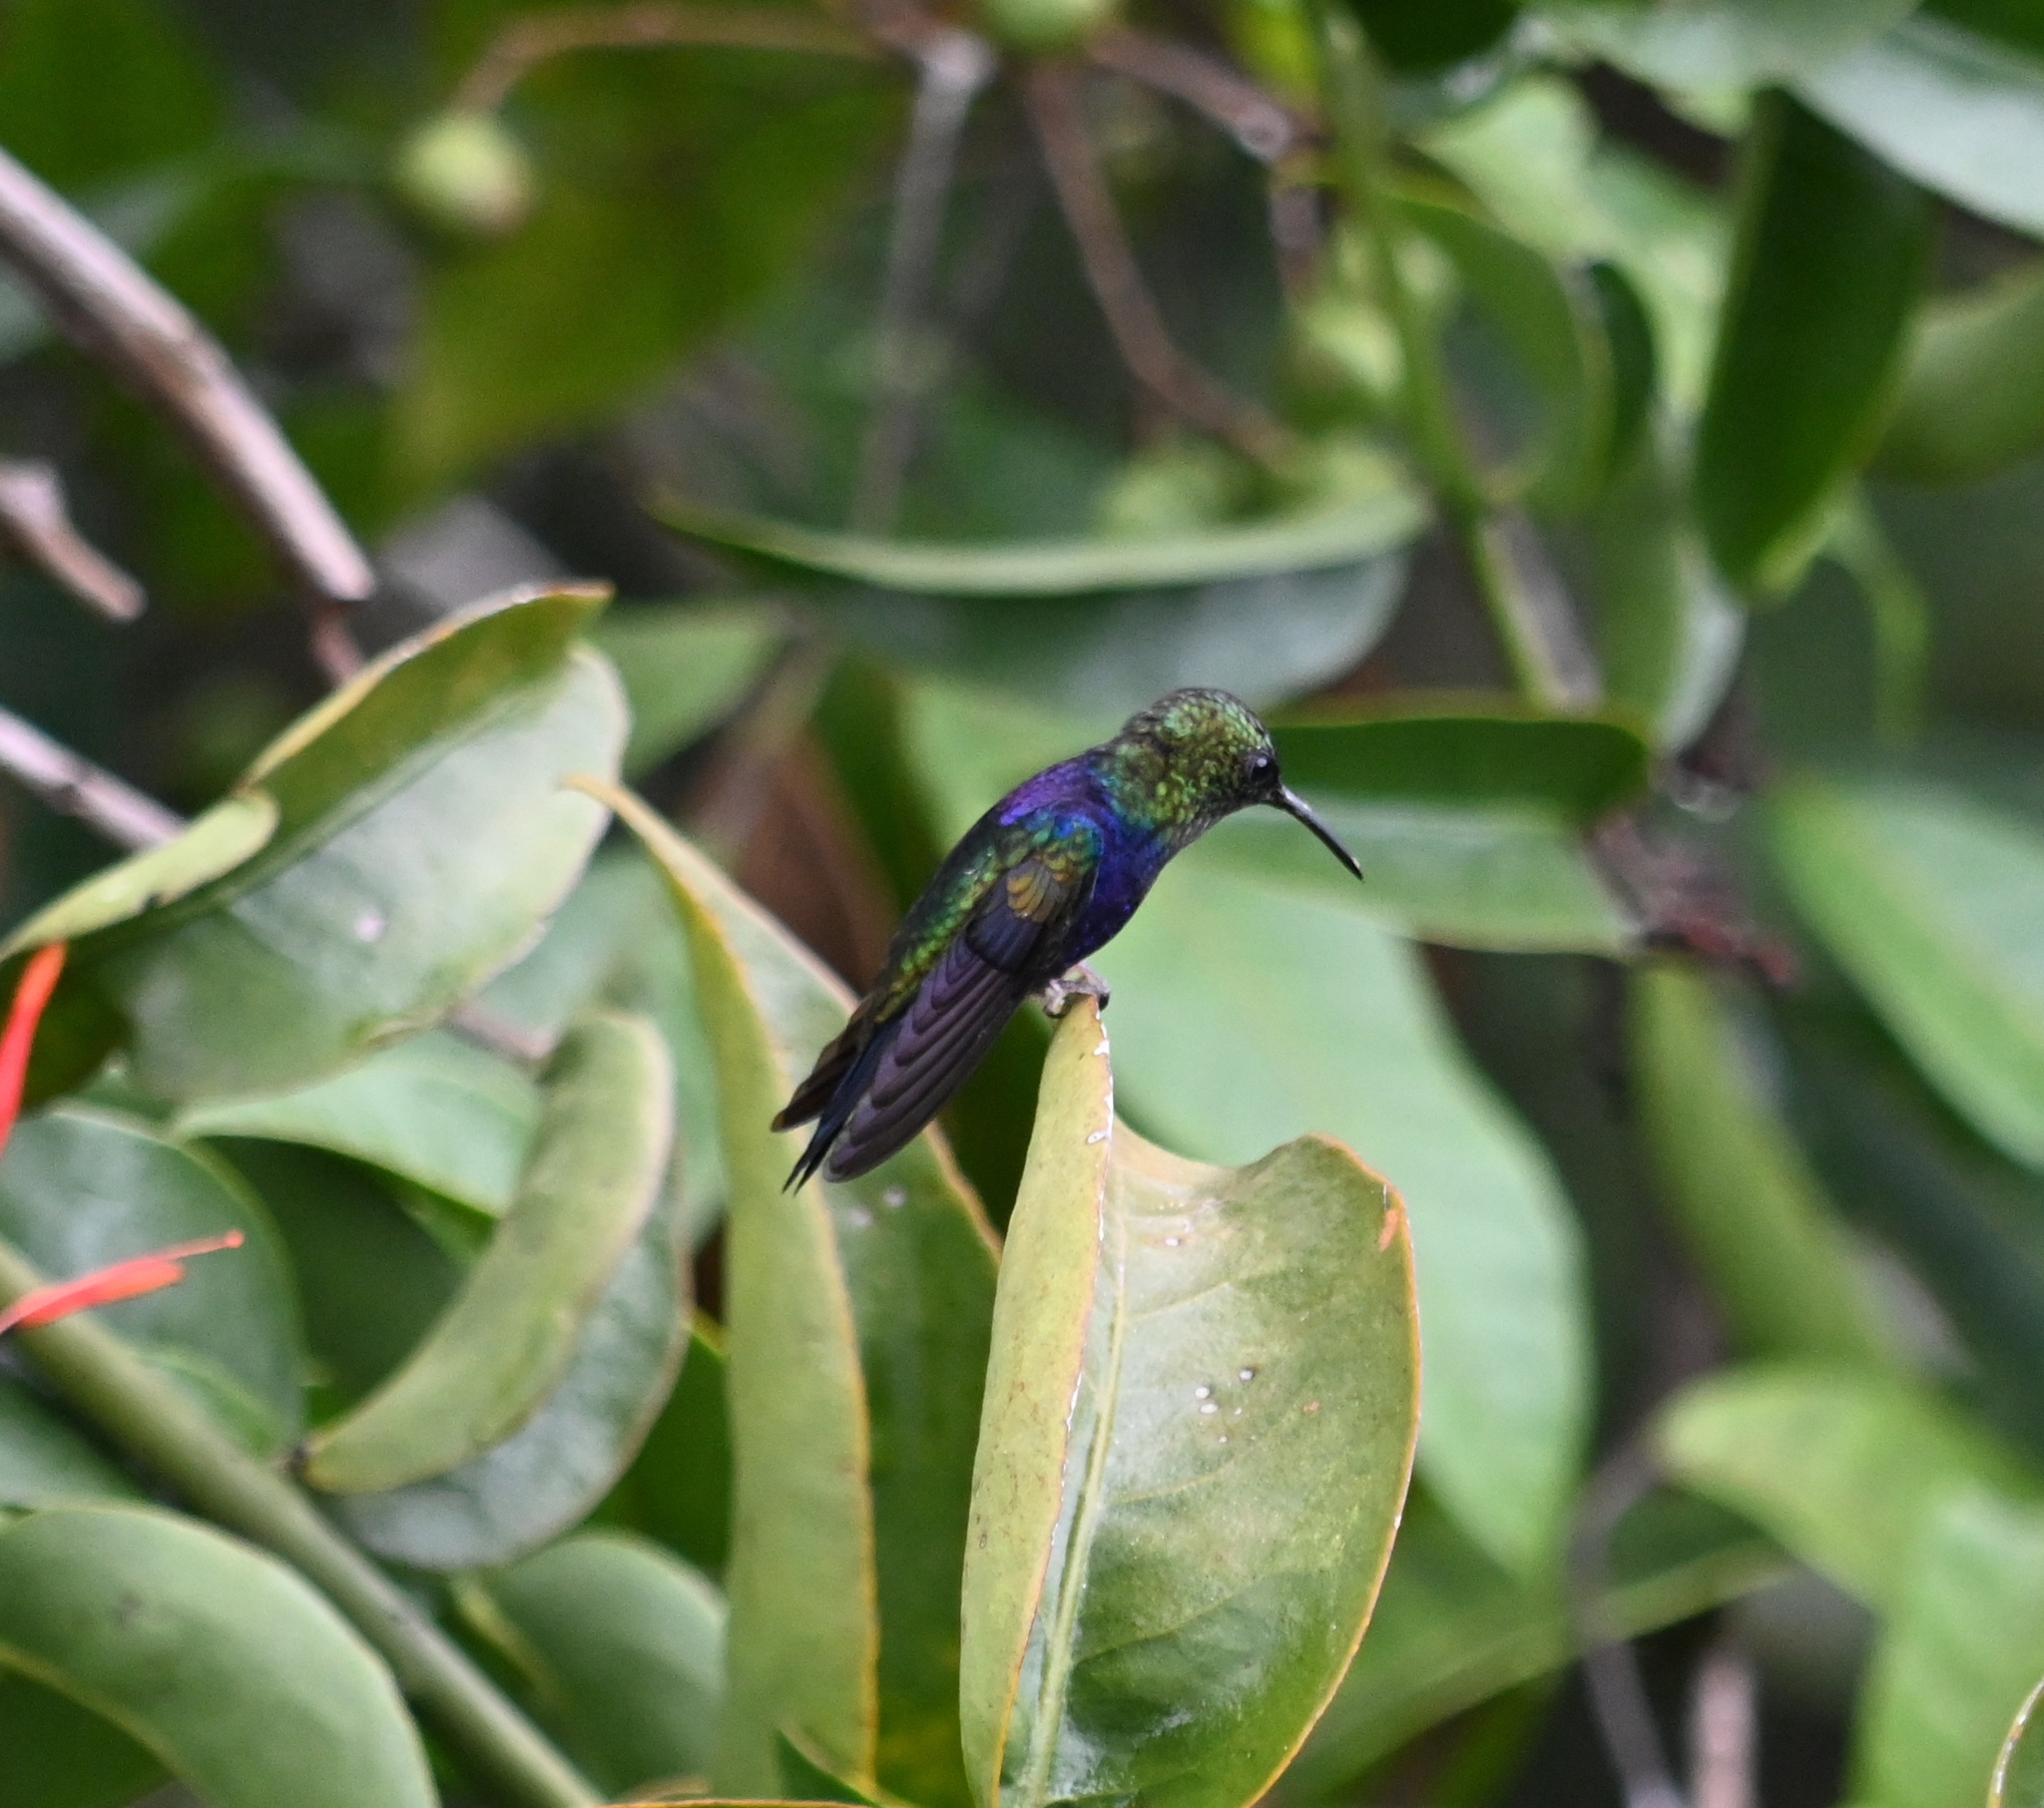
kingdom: Animalia
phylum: Chordata
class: Aves
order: Apodiformes
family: Trochilidae
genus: Thalurania
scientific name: Thalurania furcata
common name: Fork-tailed woodnymph
